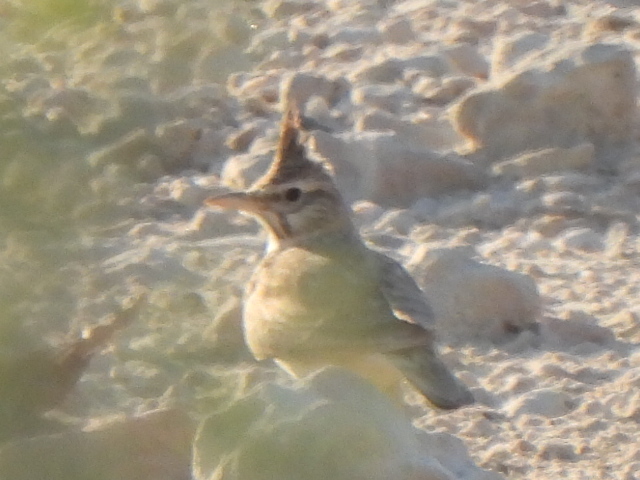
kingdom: Animalia
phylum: Chordata
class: Aves
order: Passeriformes
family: Alaudidae
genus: Galerida
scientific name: Galerida cristata
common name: Crested lark
